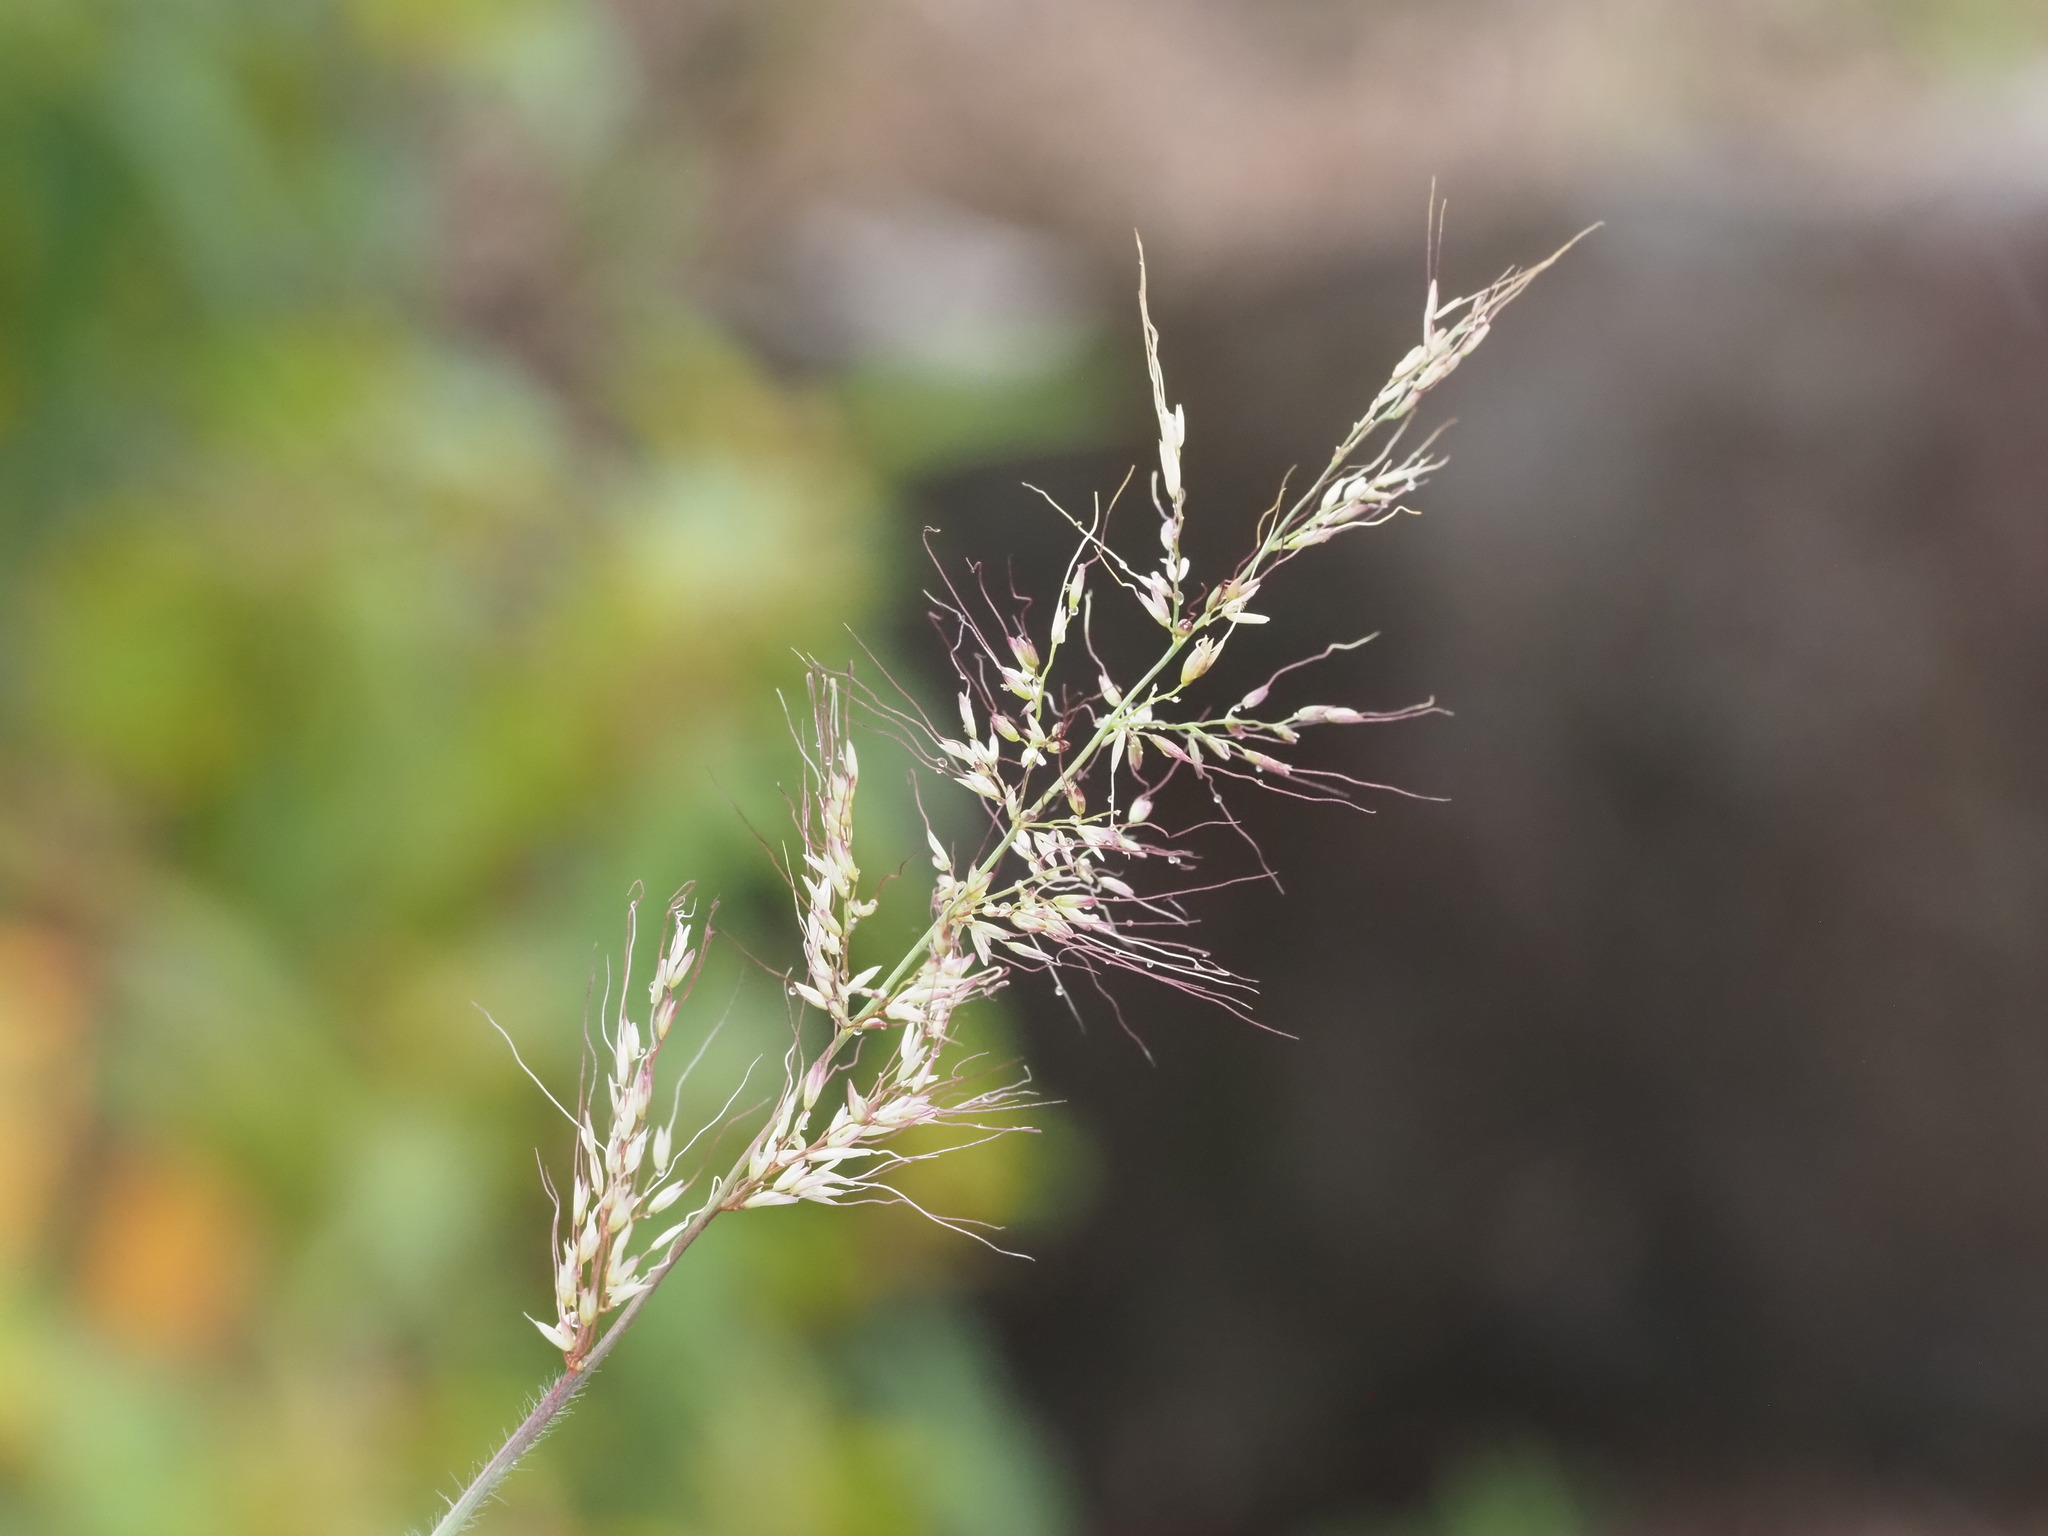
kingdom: Plantae
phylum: Tracheophyta
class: Liliopsida
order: Poales
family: Poaceae
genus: Melinis
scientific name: Melinis minutiflora
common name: Molassesgrass
